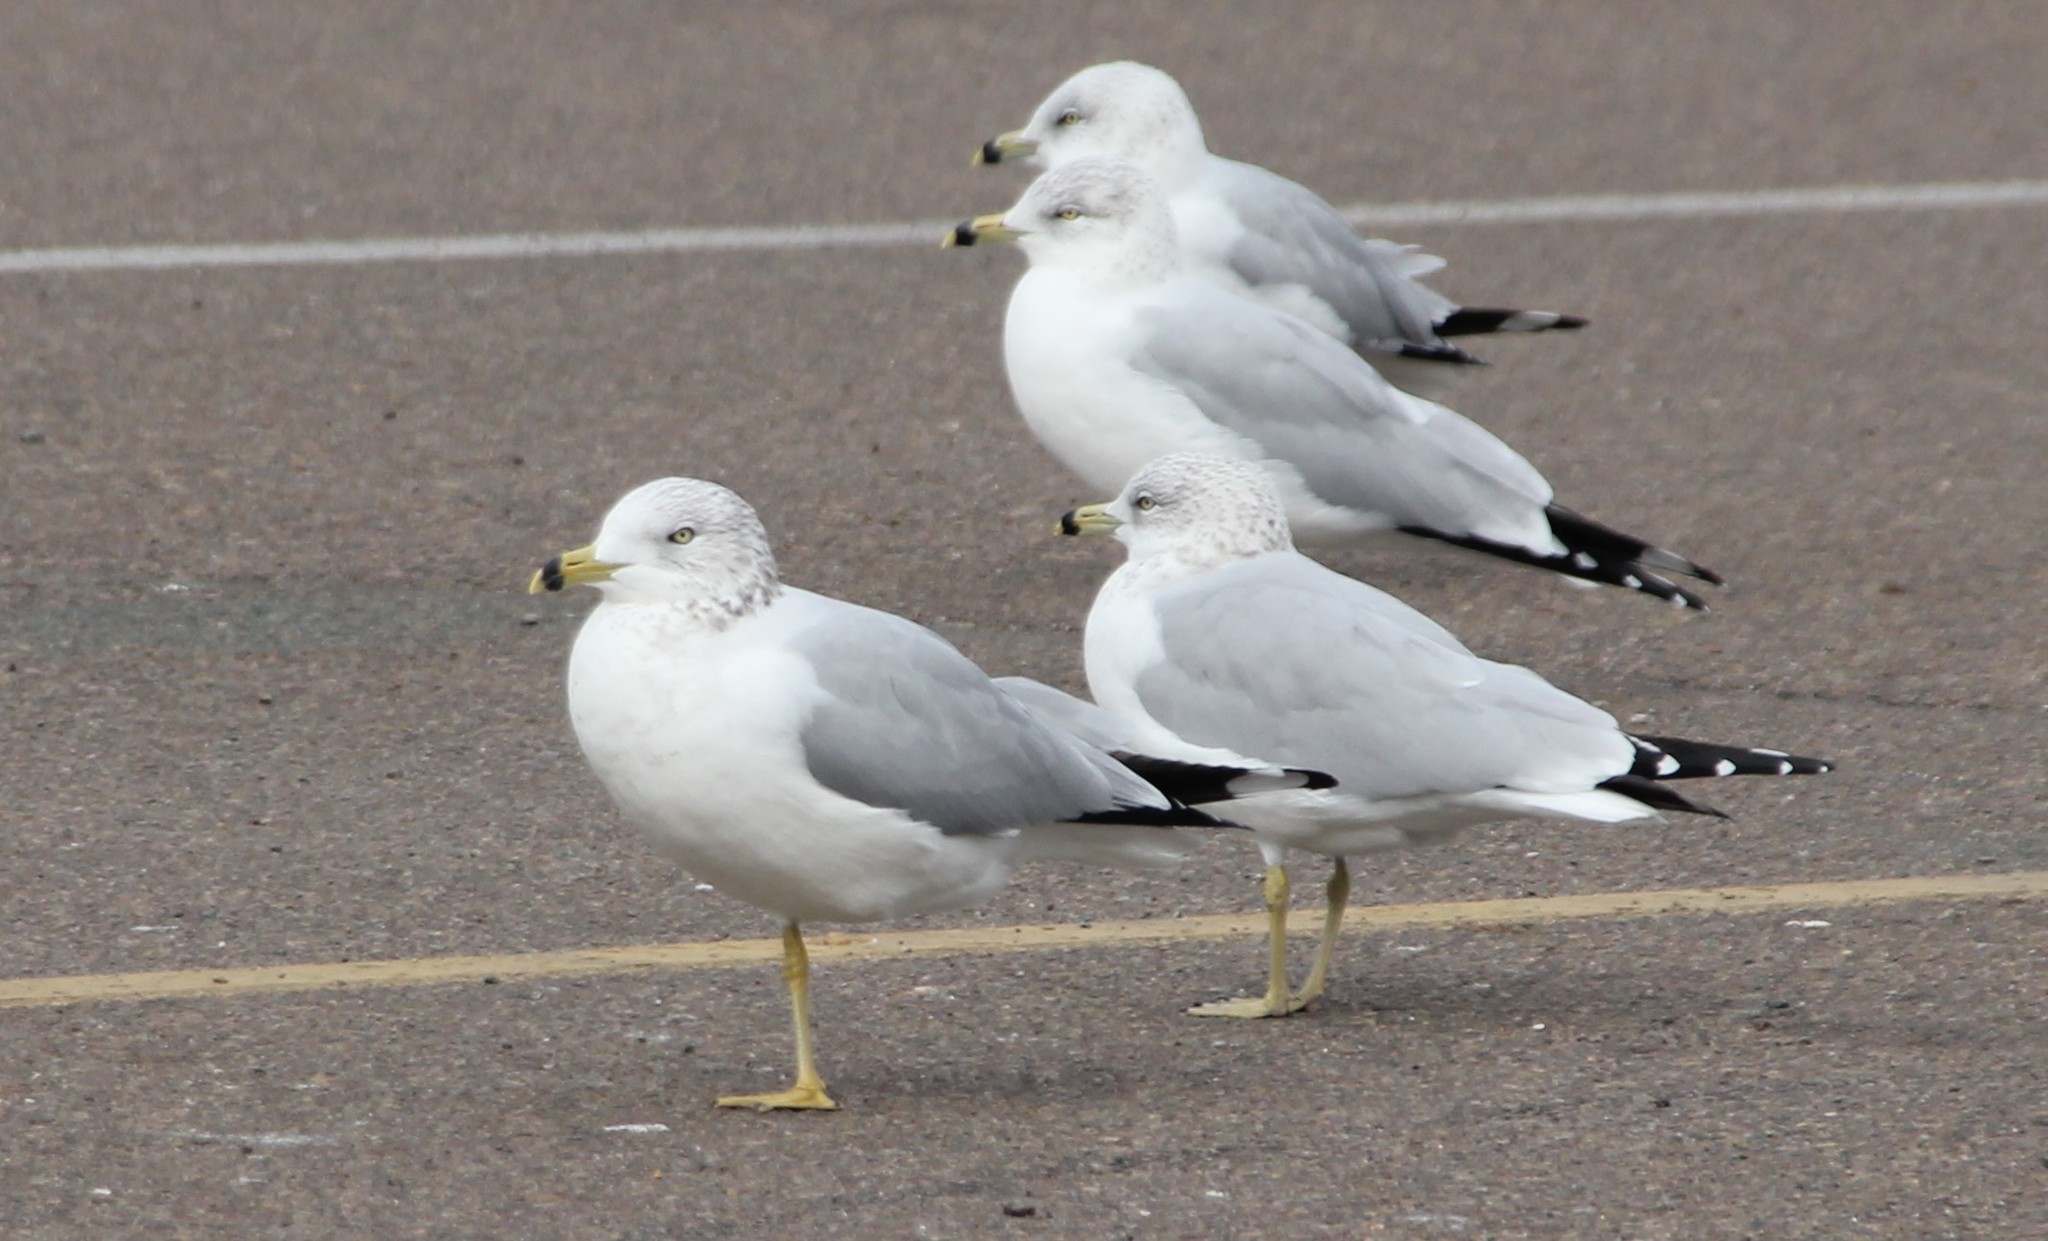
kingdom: Animalia
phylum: Chordata
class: Aves
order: Charadriiformes
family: Laridae
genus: Larus
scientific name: Larus delawarensis
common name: Ring-billed gull
